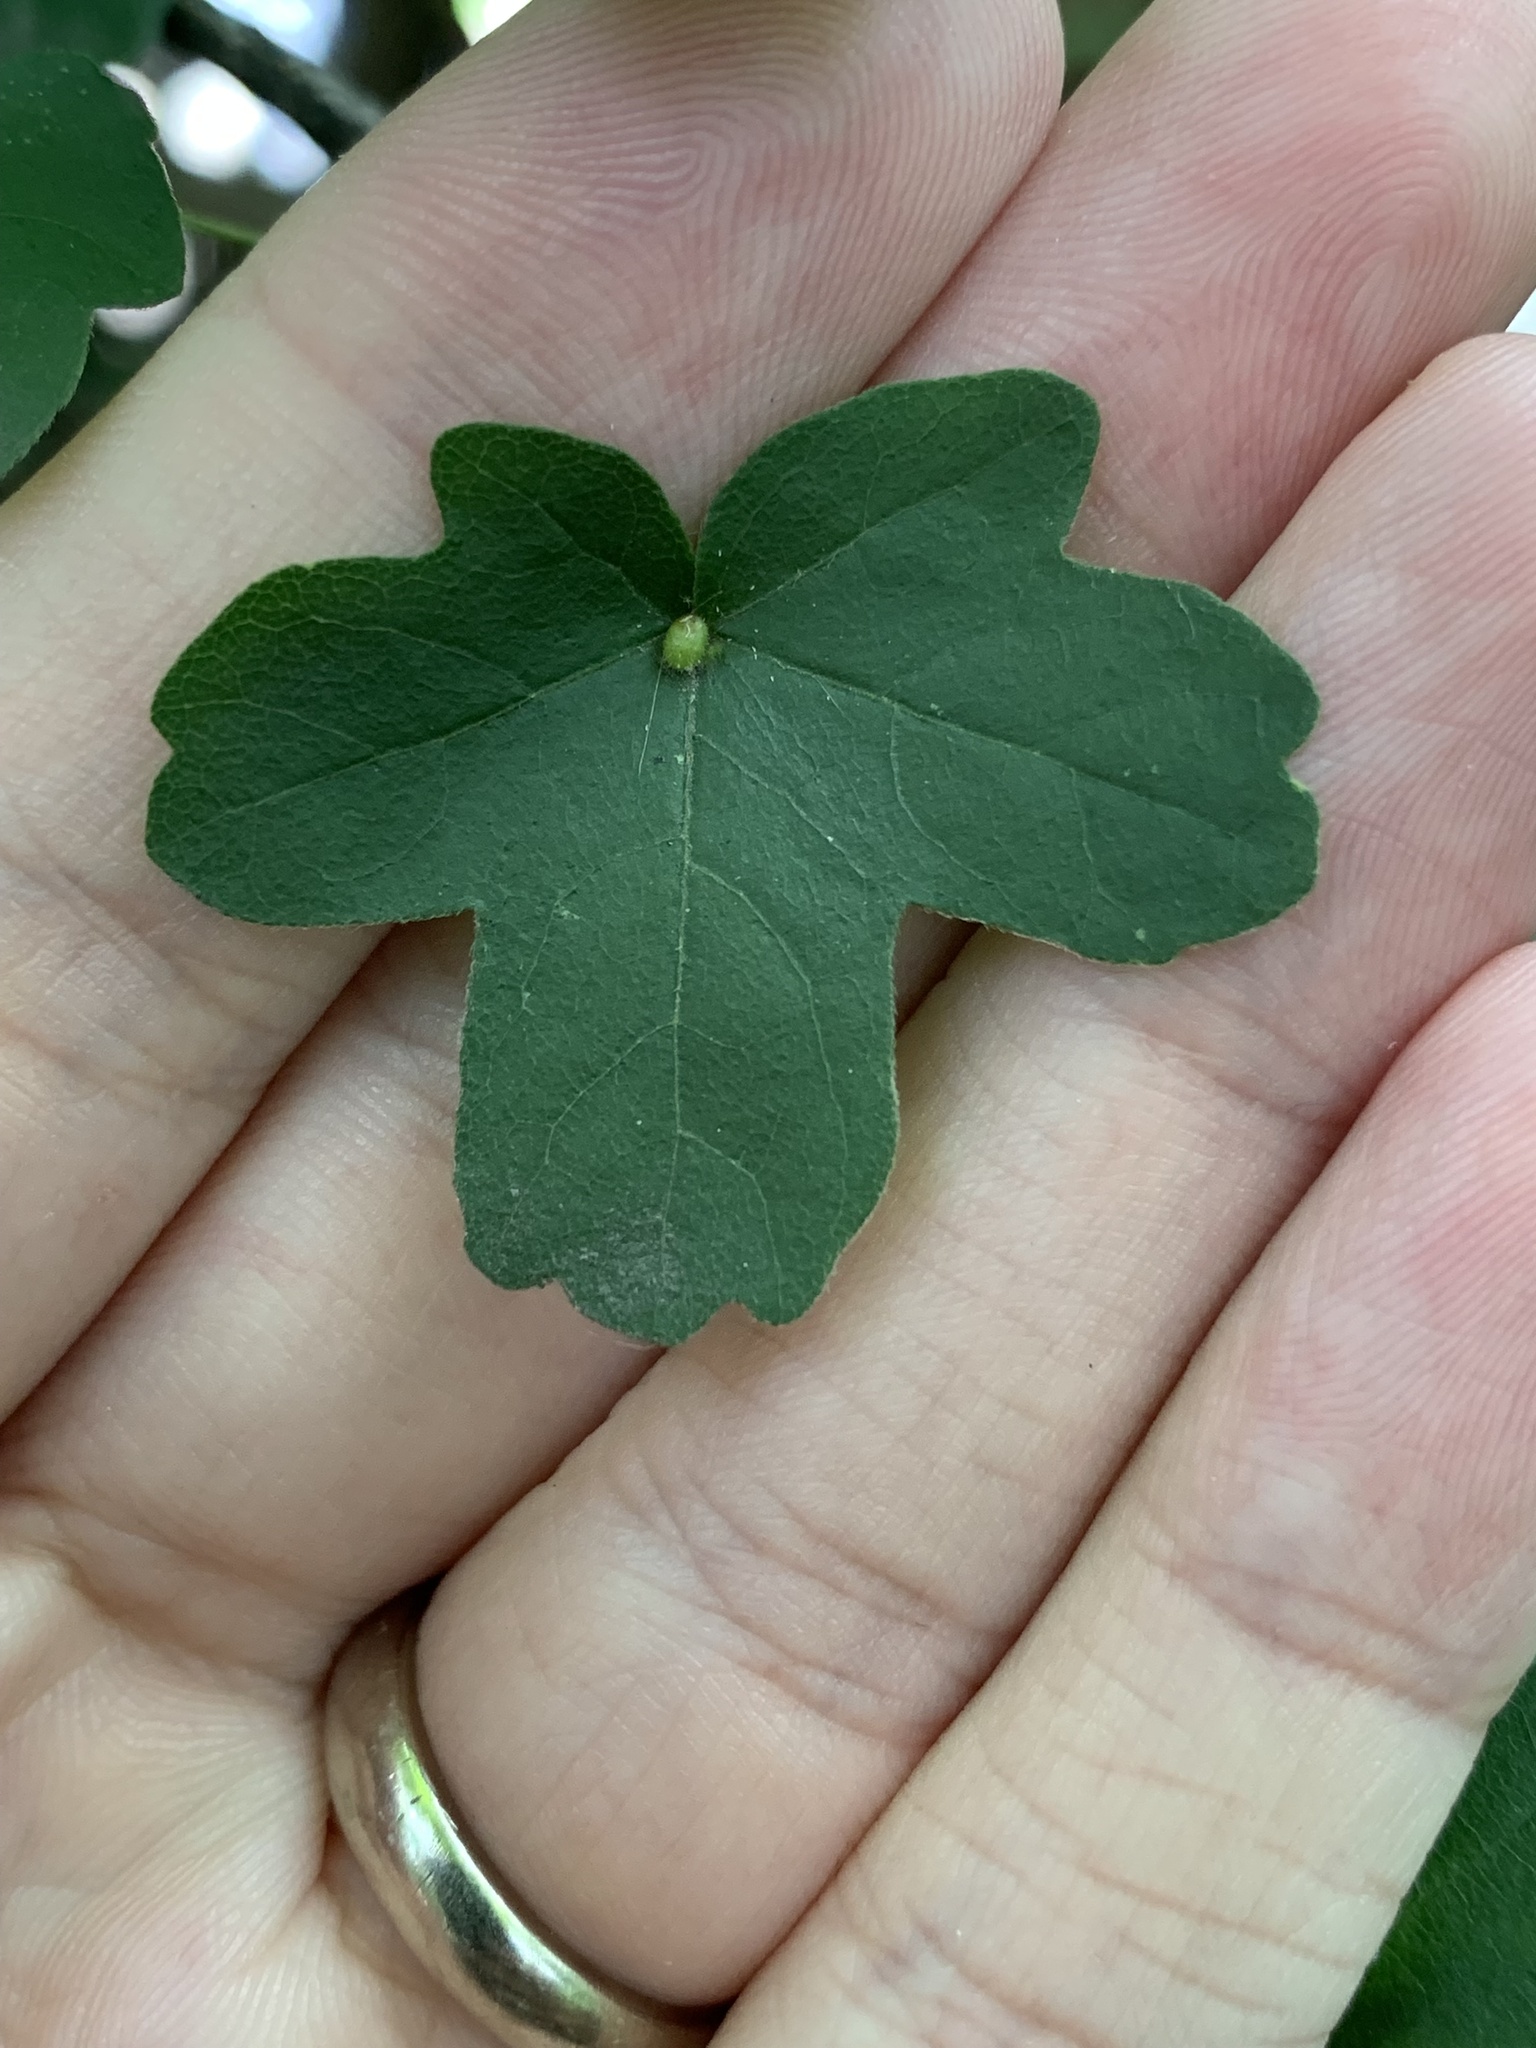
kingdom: Animalia
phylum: Arthropoda
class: Arachnida
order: Trombidiformes
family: Eriophyidae
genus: Aceria
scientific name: Aceria macrochelus
